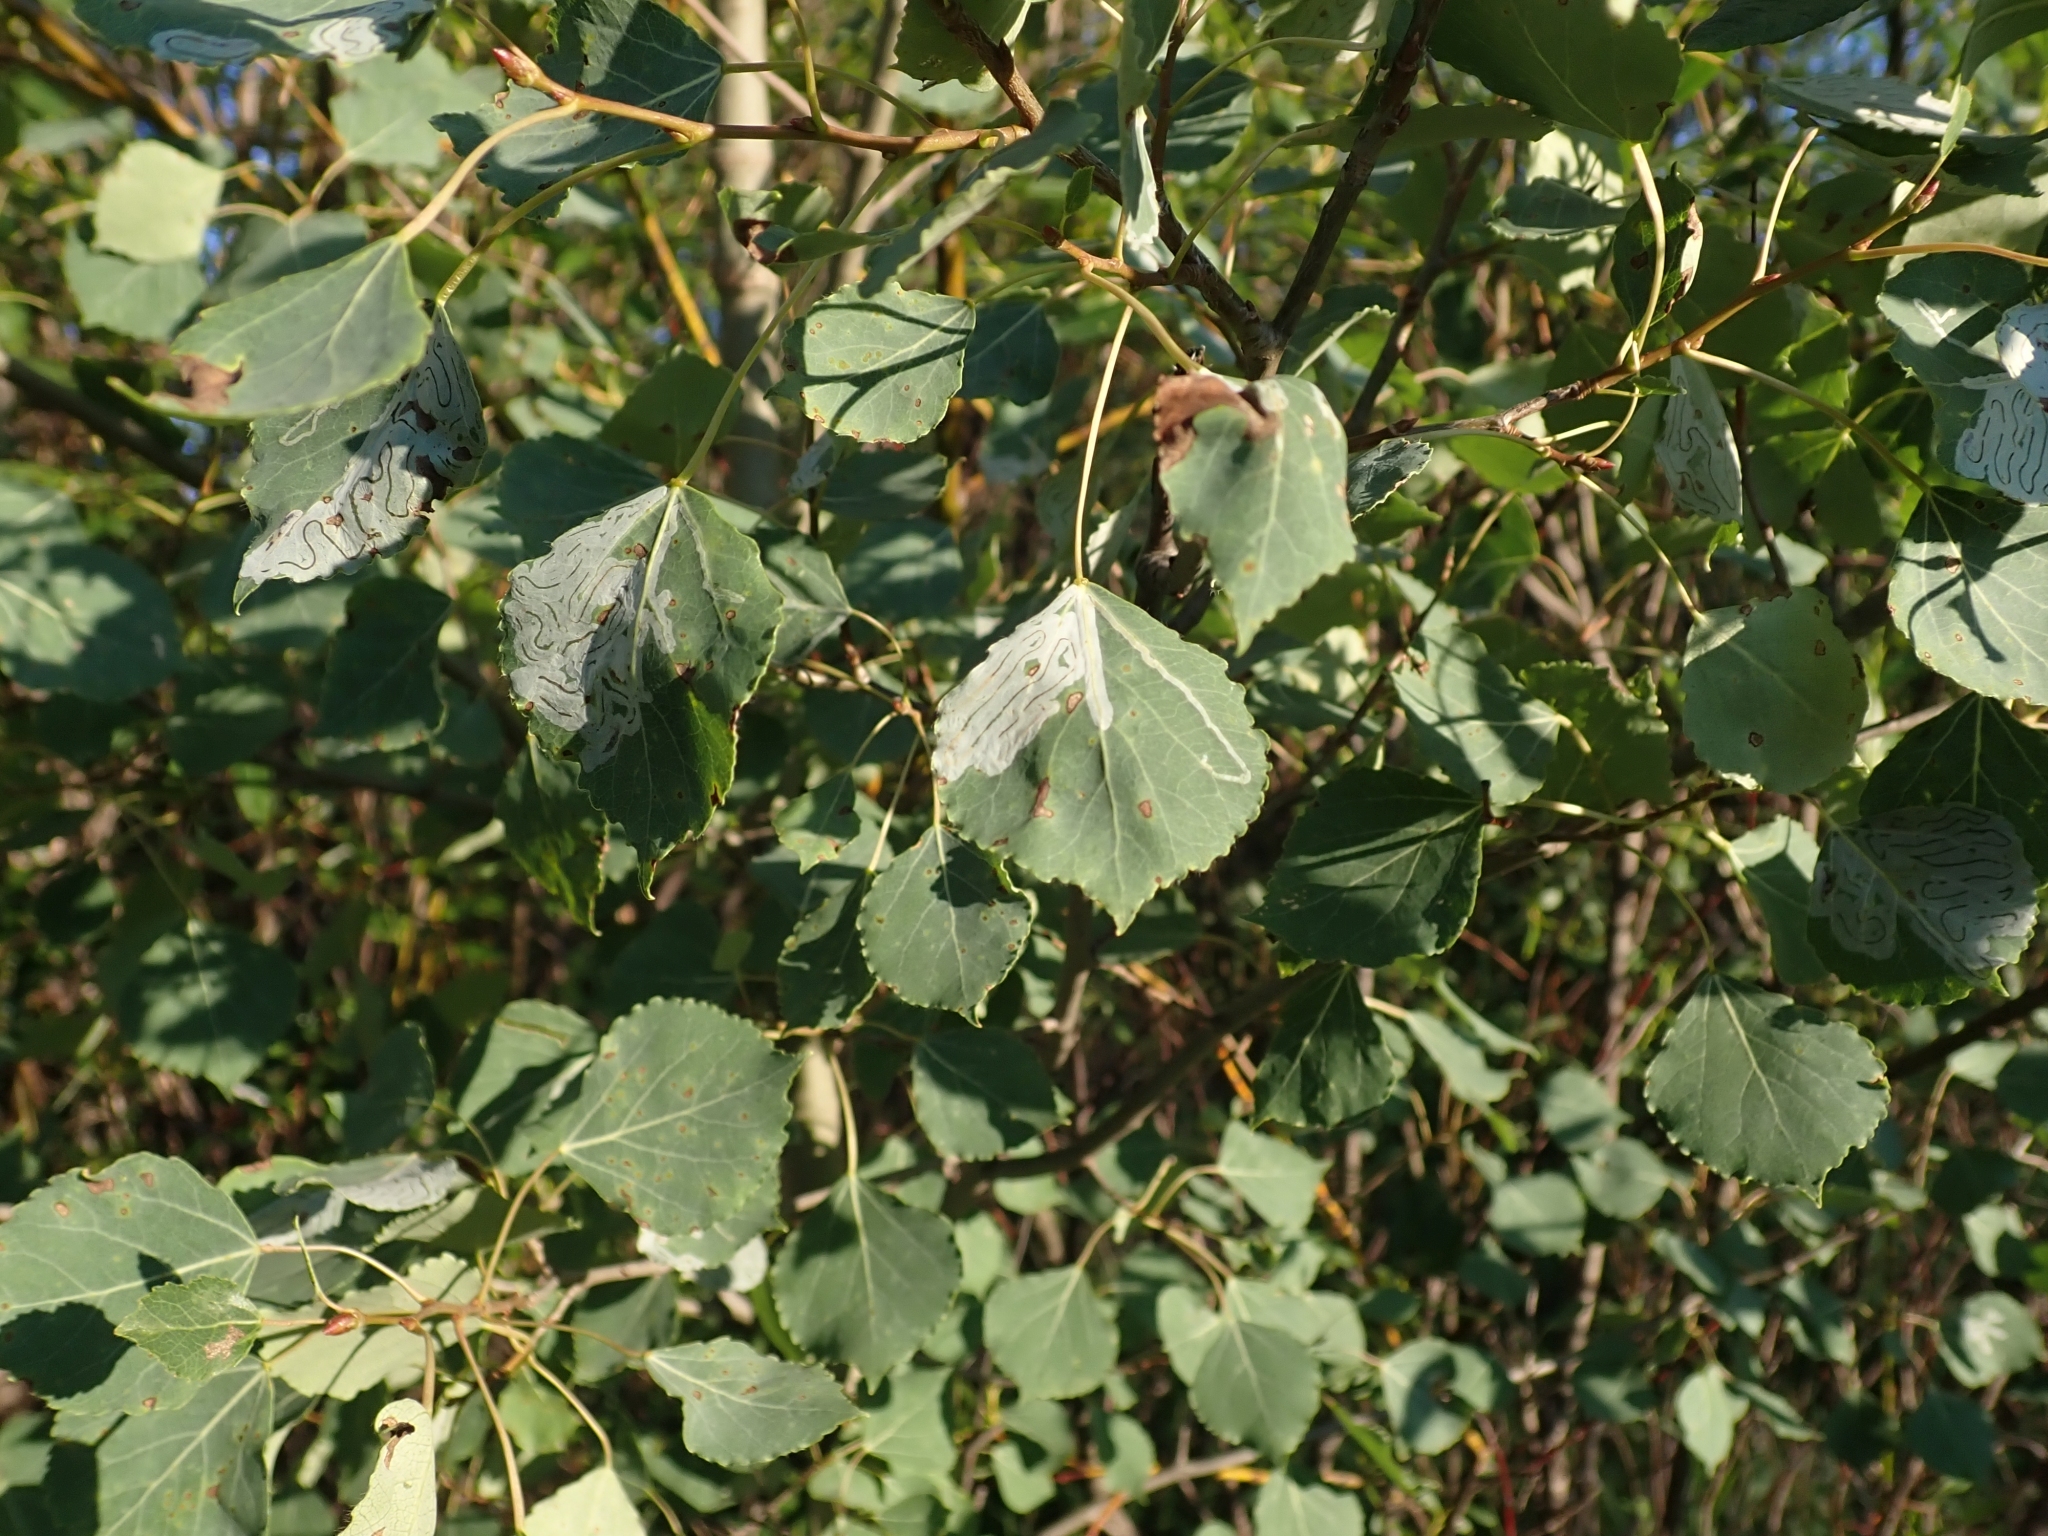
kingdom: Plantae
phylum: Tracheophyta
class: Magnoliopsida
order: Malpighiales
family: Salicaceae
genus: Populus
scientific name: Populus tremuloides
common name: Quaking aspen
